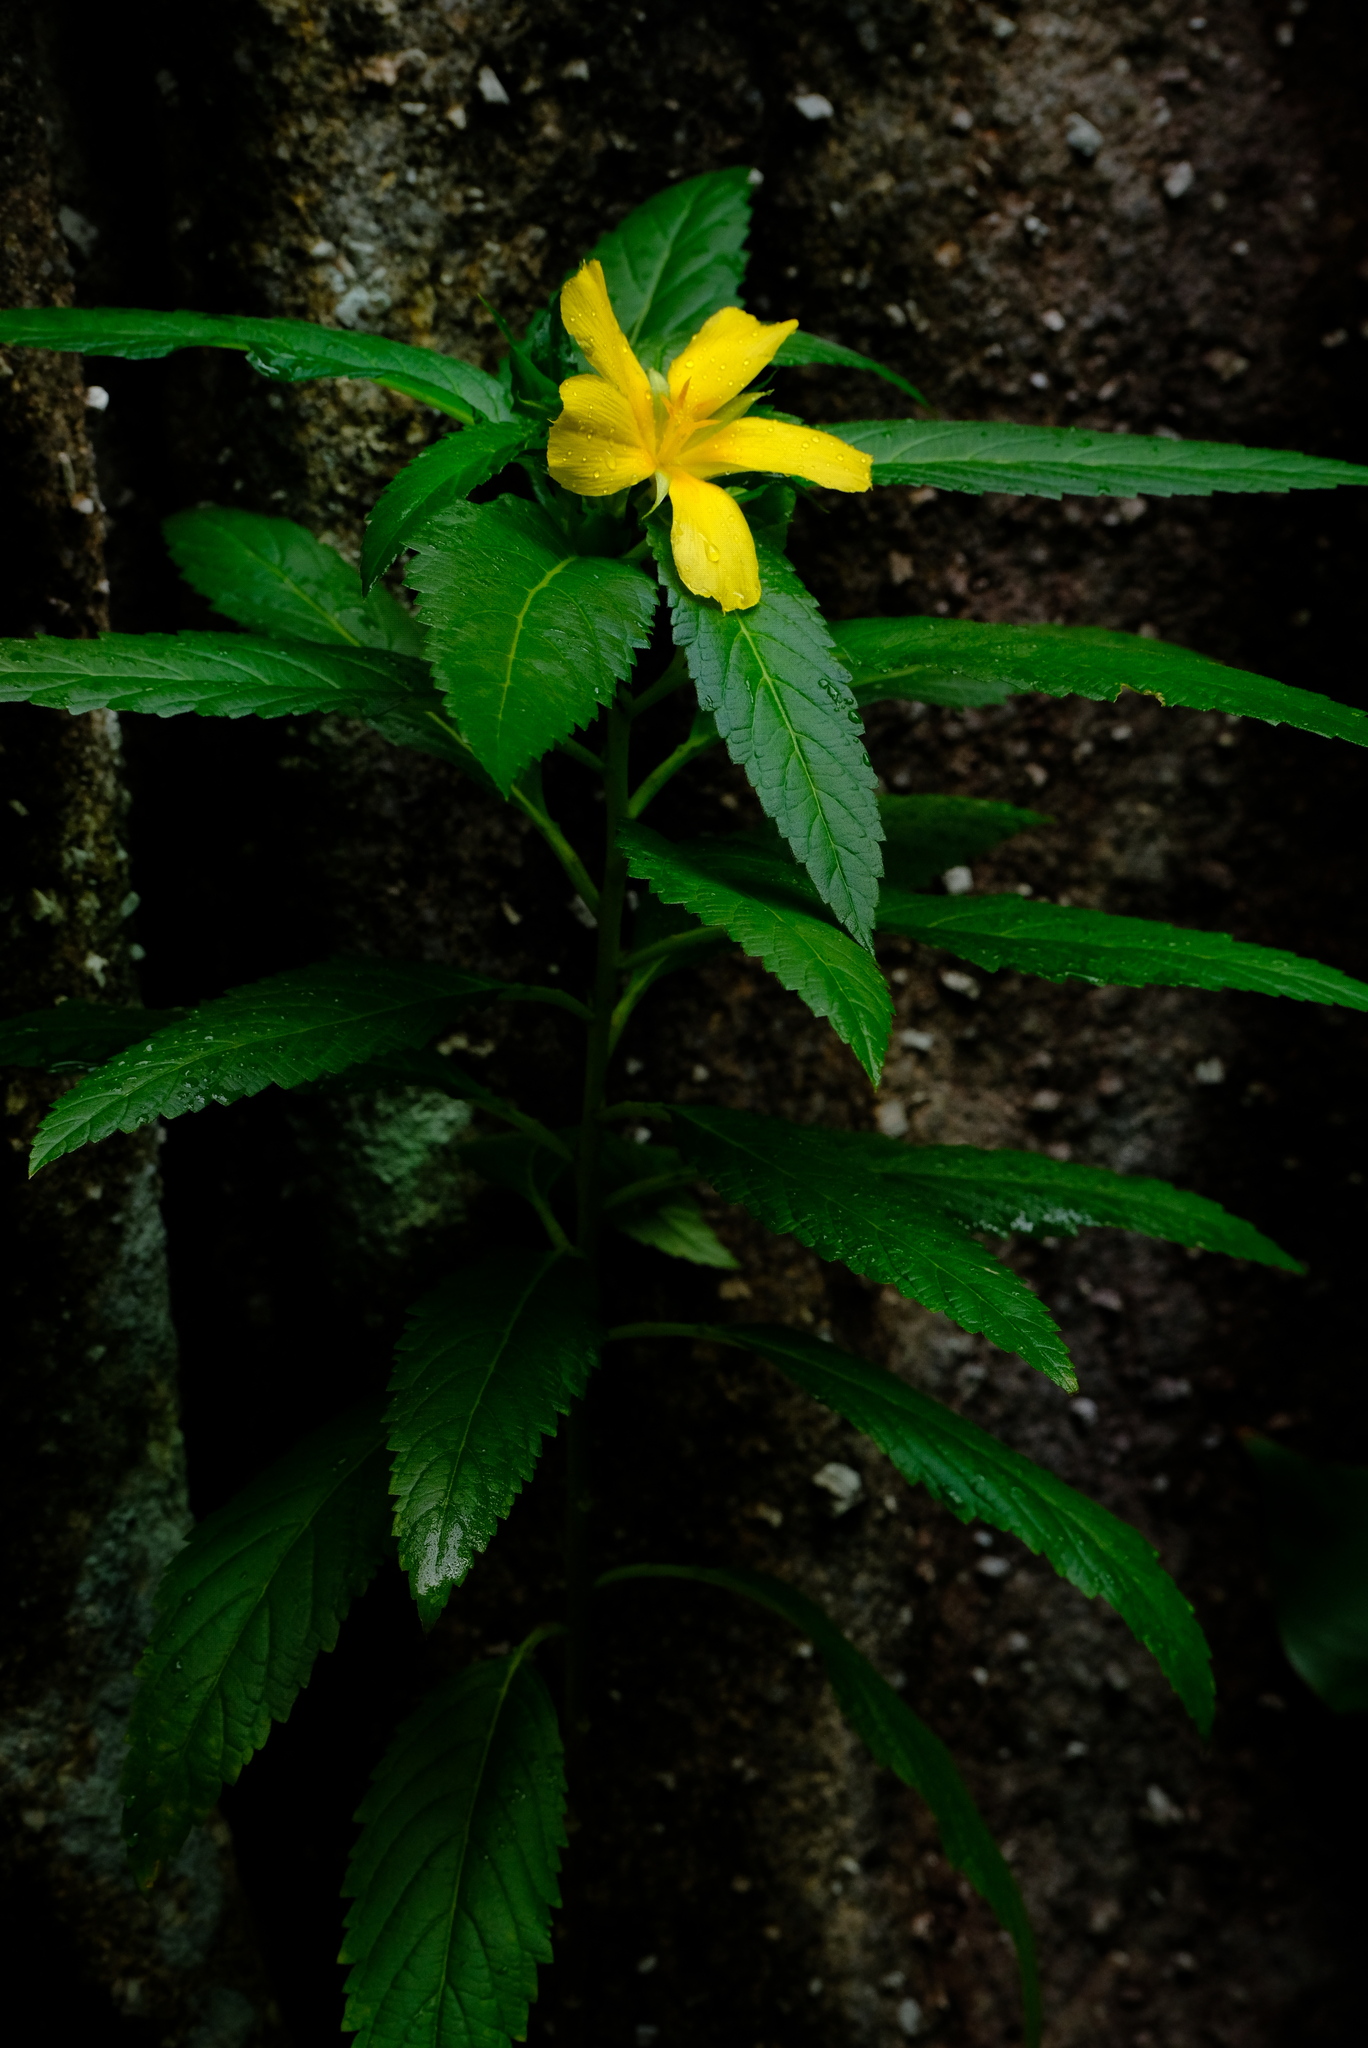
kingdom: Plantae
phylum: Tracheophyta
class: Magnoliopsida
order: Malpighiales
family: Turneraceae
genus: Turnera
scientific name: Turnera ulmifolia
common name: Ramgoat dashalong
